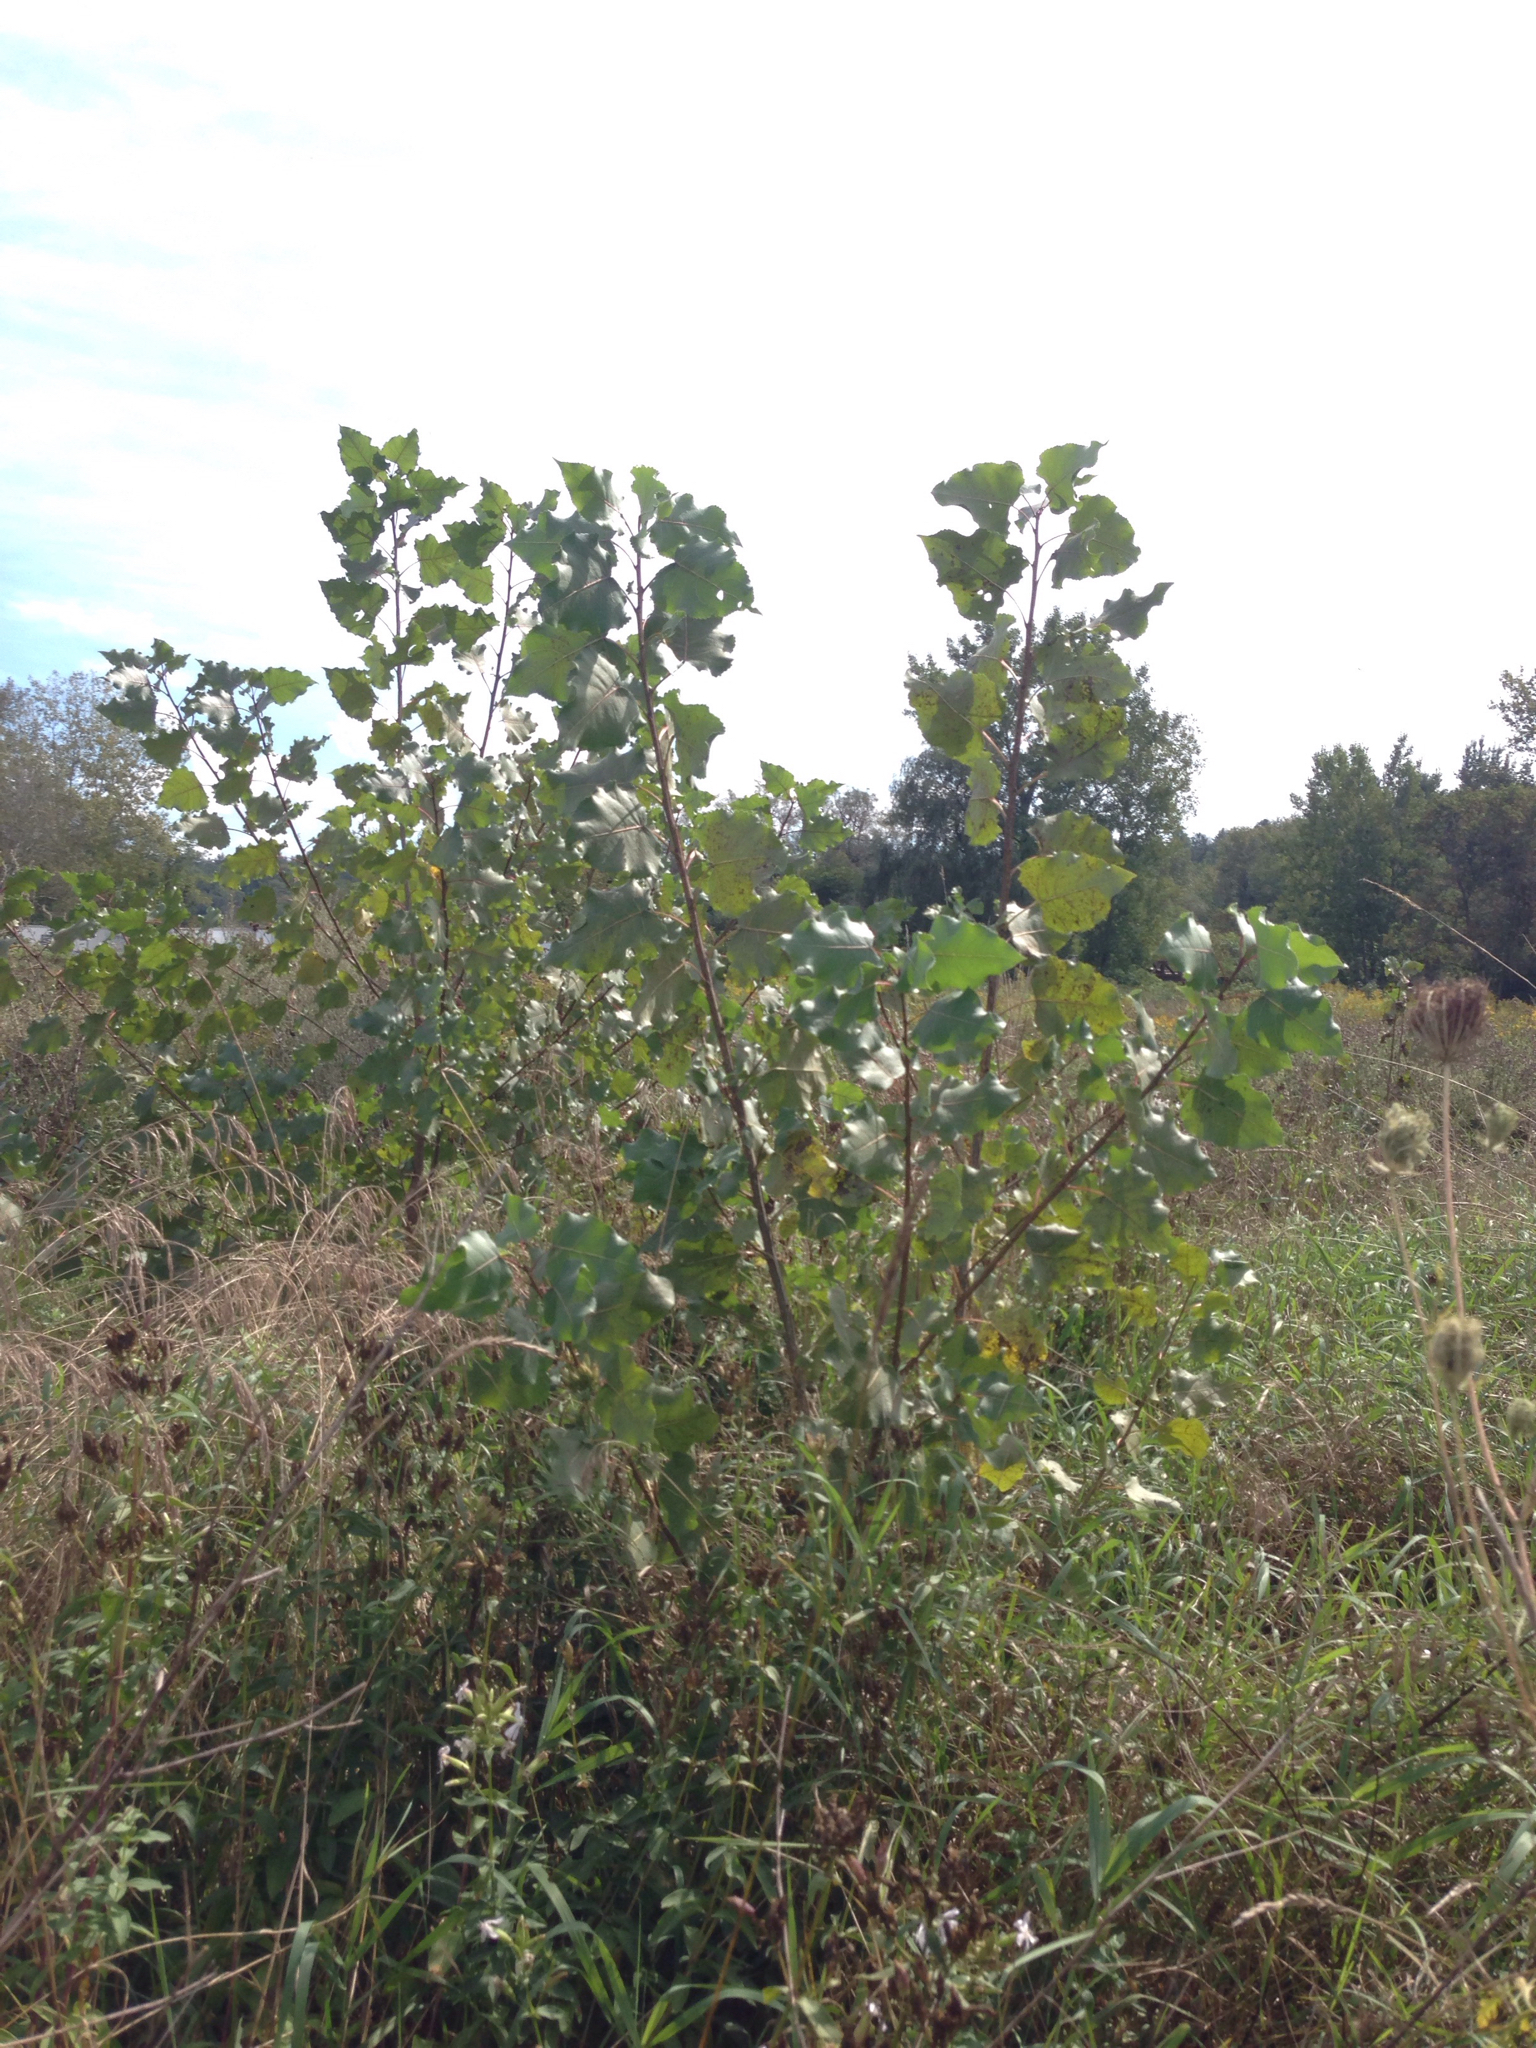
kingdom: Plantae
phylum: Tracheophyta
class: Magnoliopsida
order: Malpighiales
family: Salicaceae
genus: Populus
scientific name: Populus deltoides
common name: Eastern cottonwood
